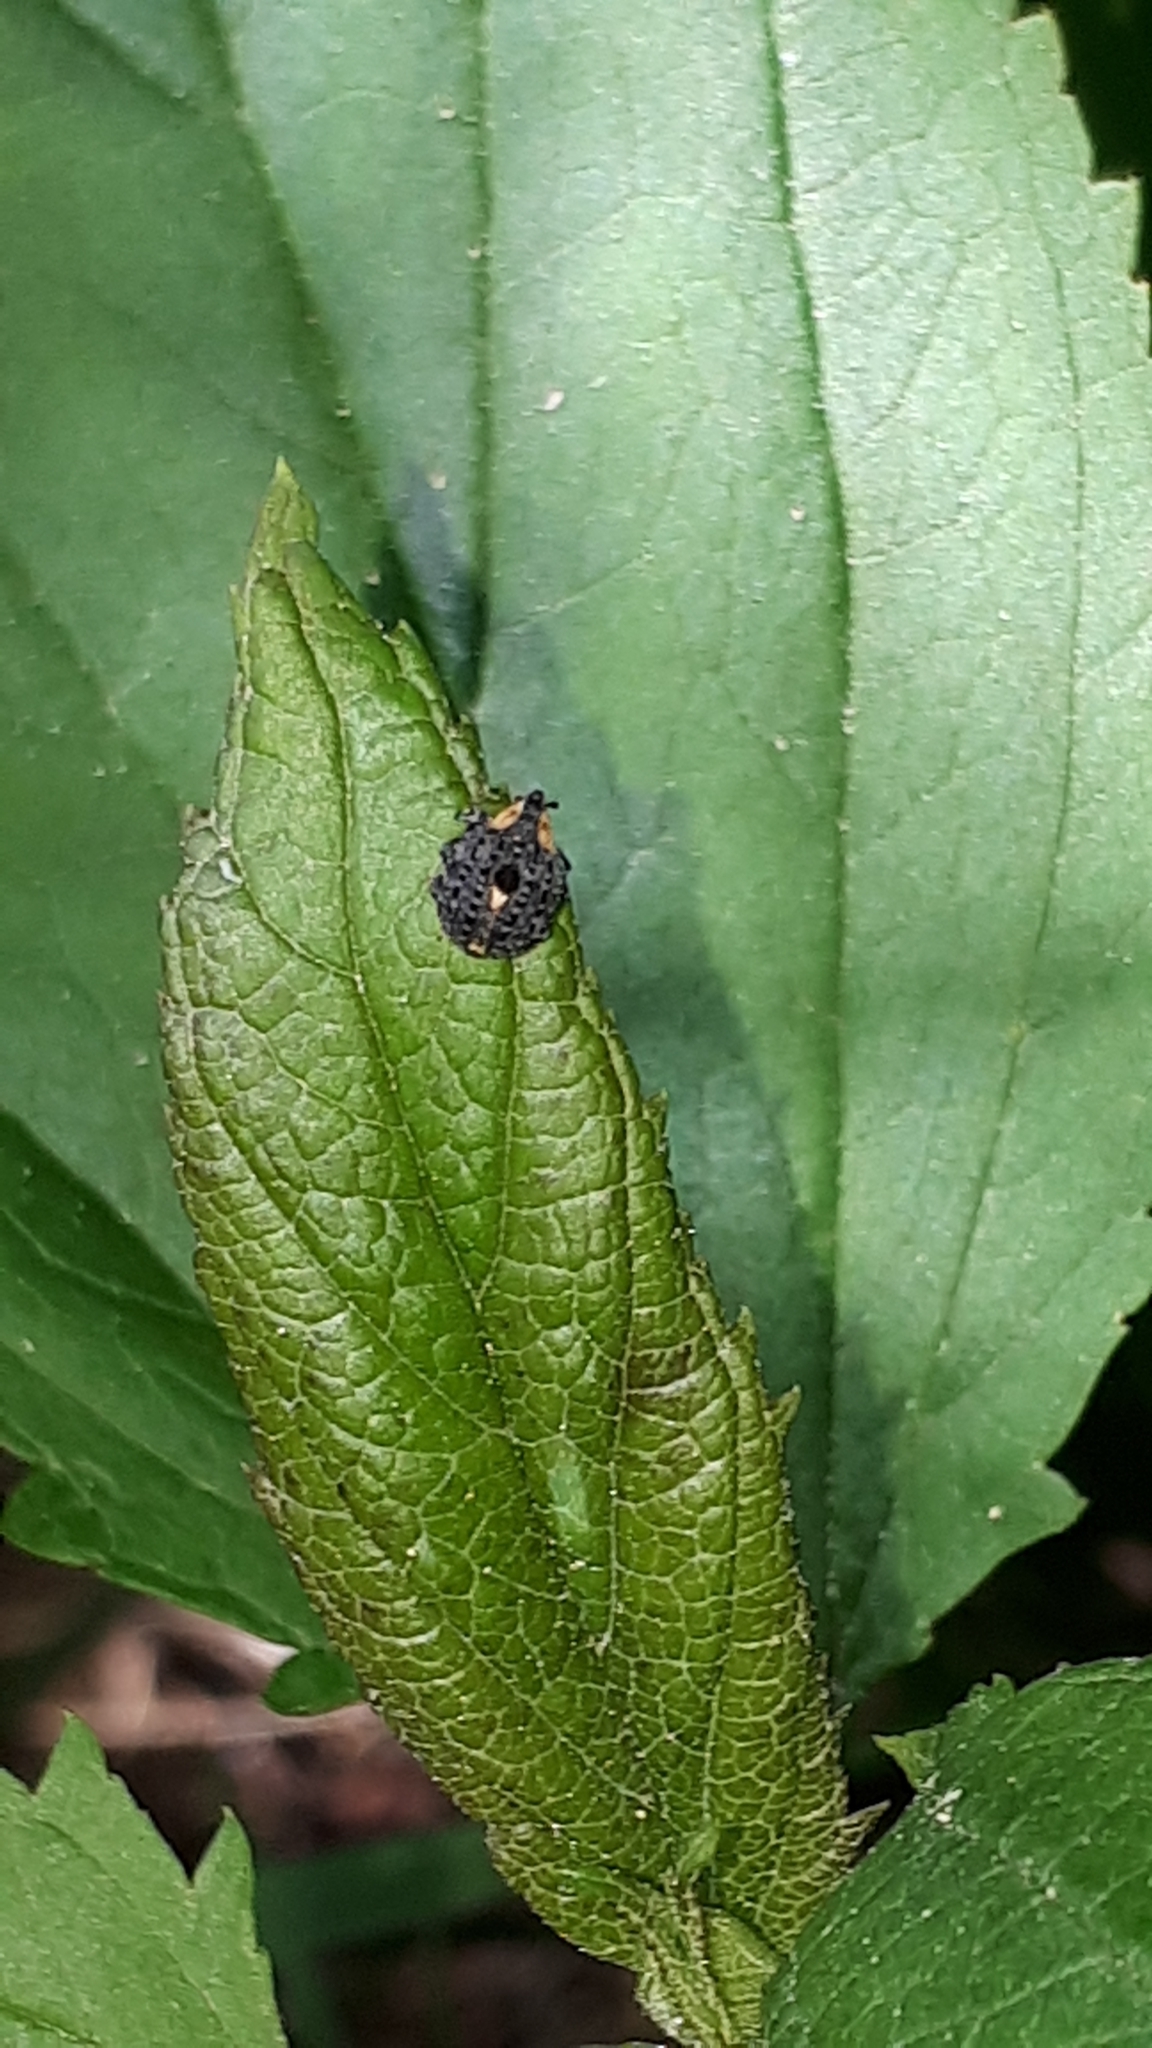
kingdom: Animalia
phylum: Arthropoda
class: Insecta
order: Coleoptera
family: Curculionidae
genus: Cionus
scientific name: Cionus tuberculosus
